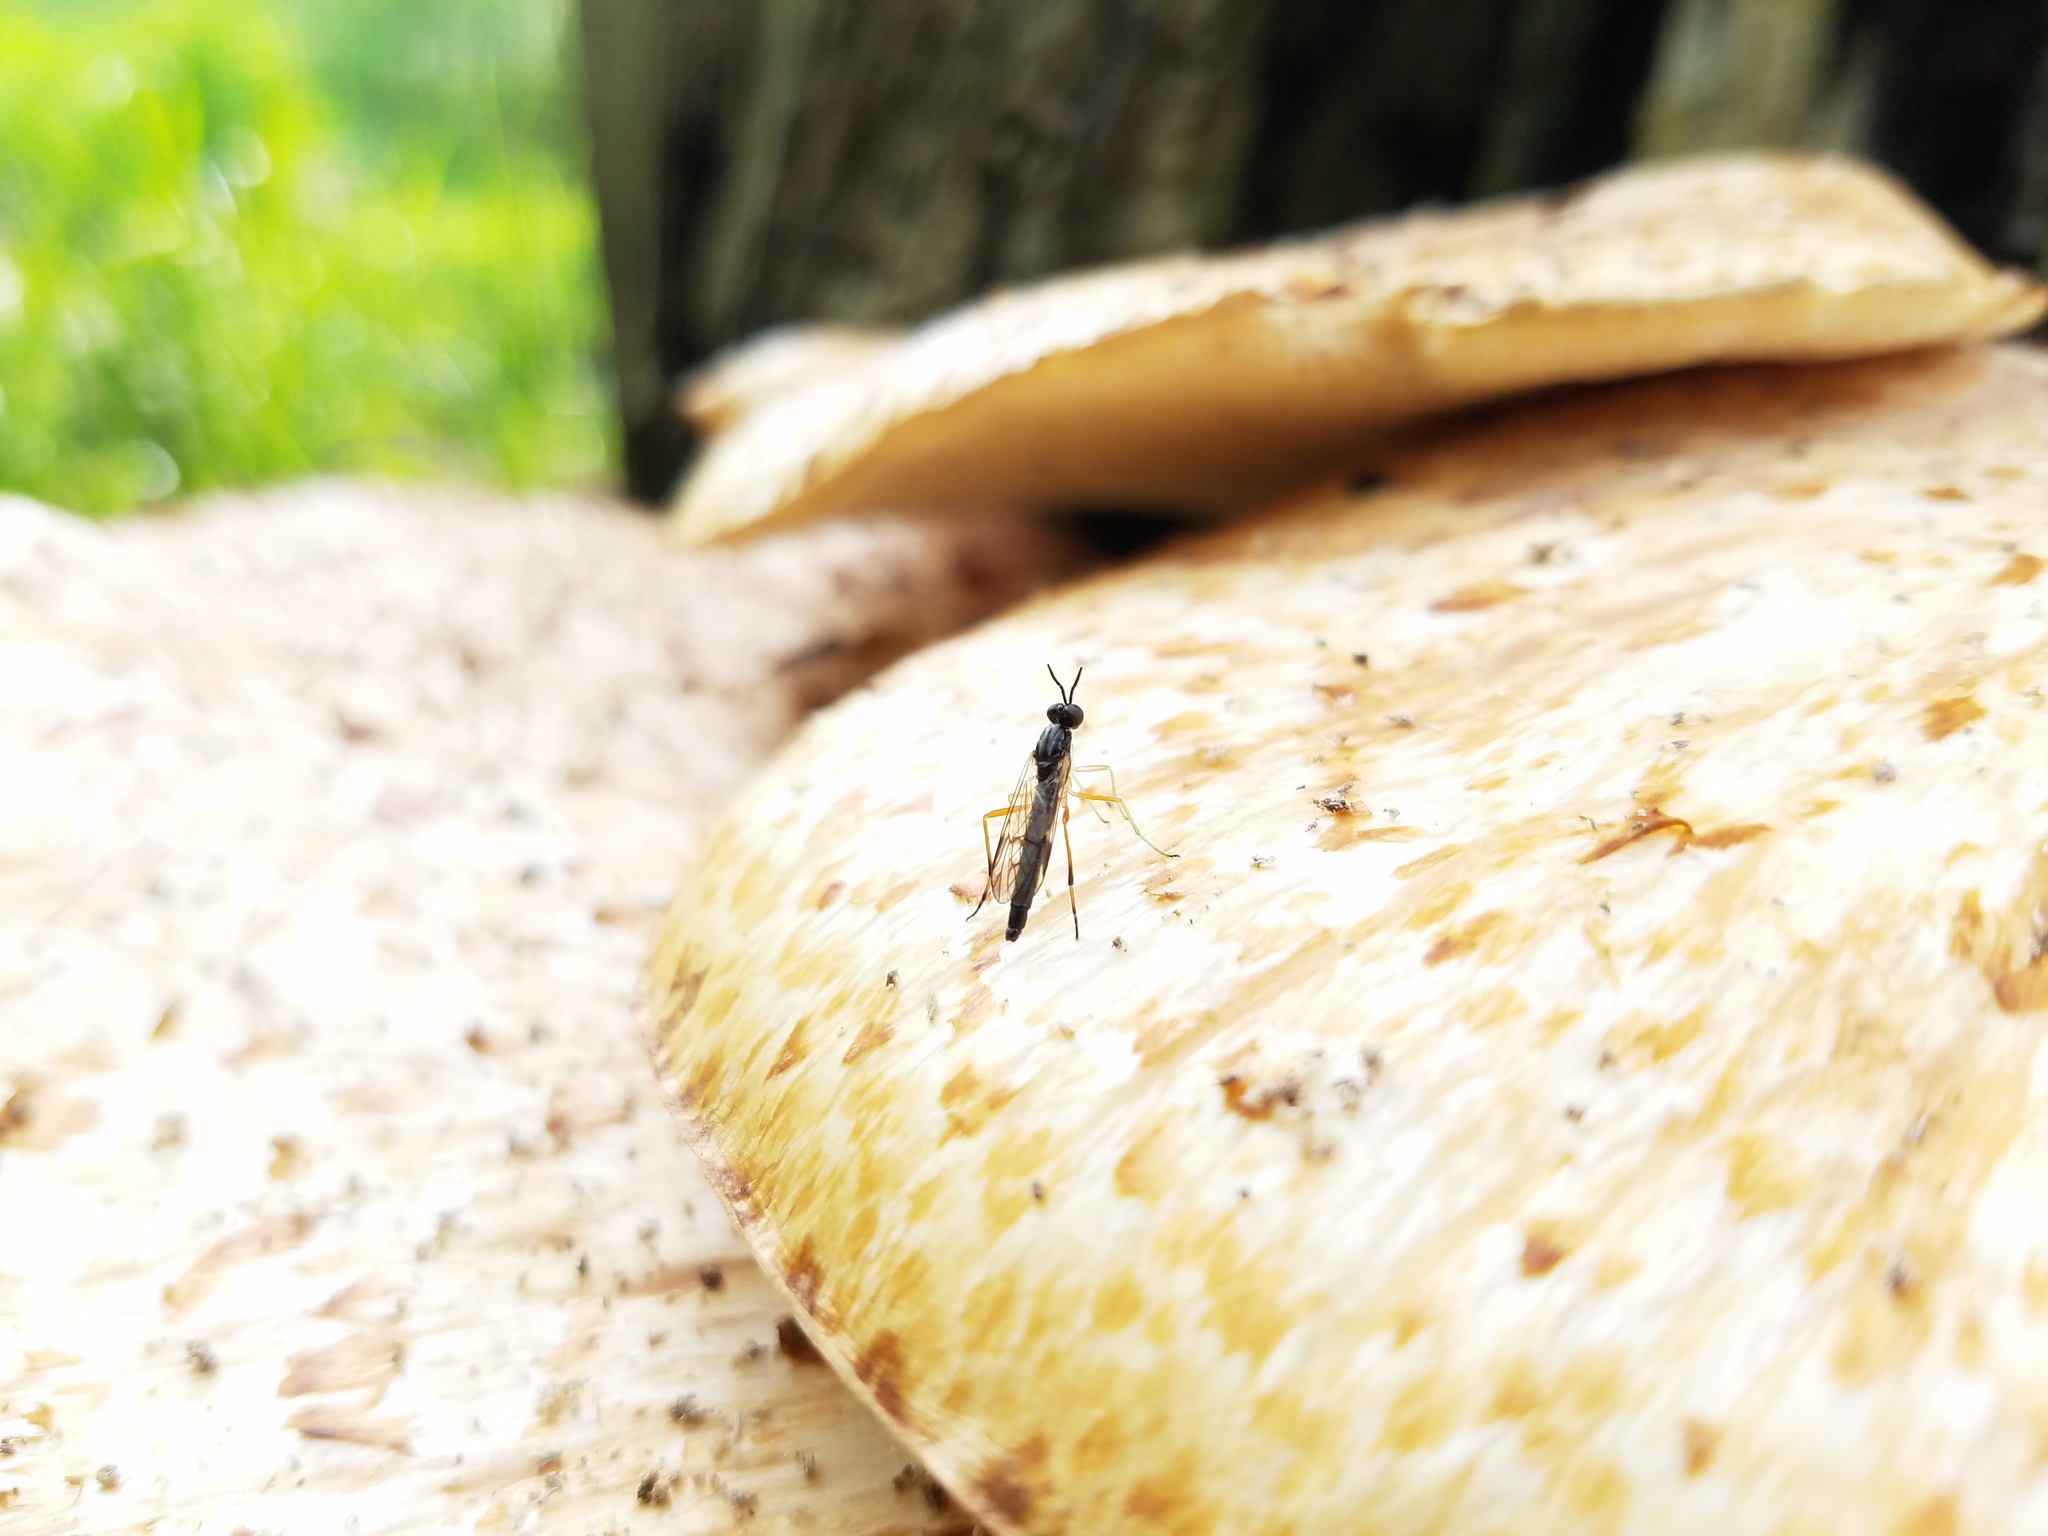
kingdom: Animalia
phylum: Arthropoda
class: Insecta
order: Diptera
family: Xylophagidae
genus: Xylophagus
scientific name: Xylophagus reflectens
